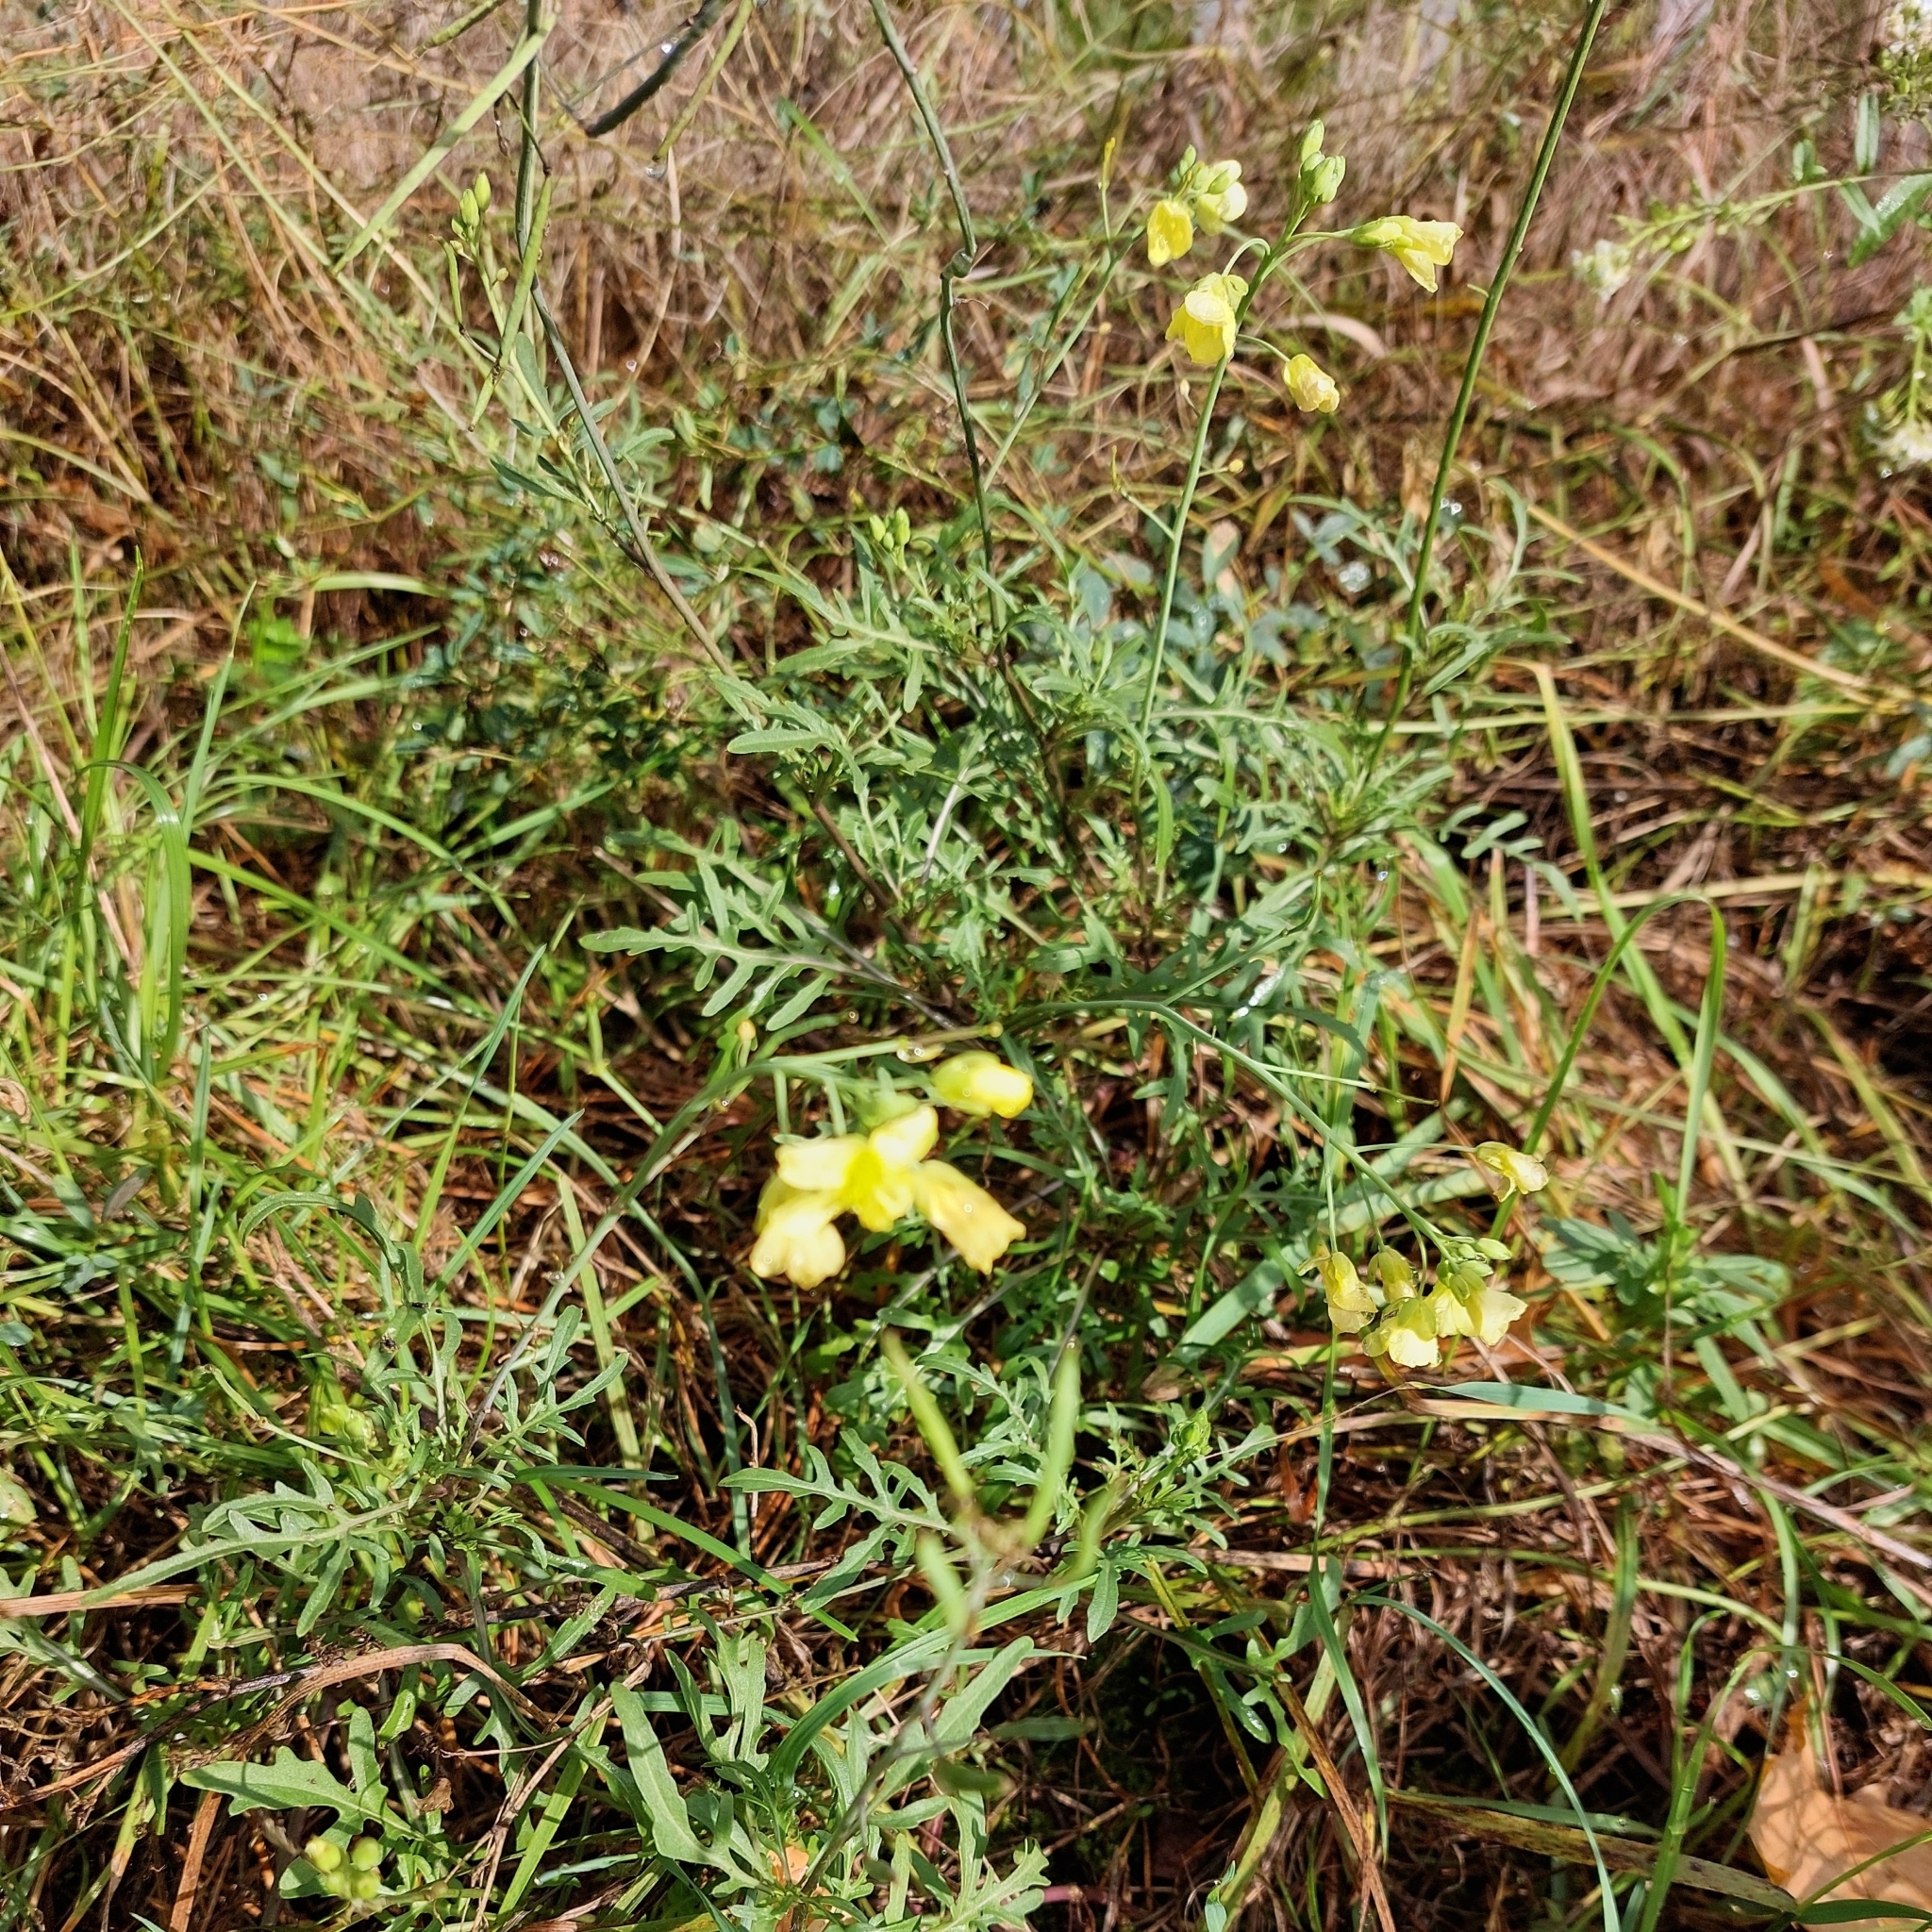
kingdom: Plantae
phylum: Tracheophyta
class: Magnoliopsida
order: Brassicales
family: Brassicaceae
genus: Diplotaxis
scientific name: Diplotaxis tenuifolia
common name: Perennial wall-rocket
